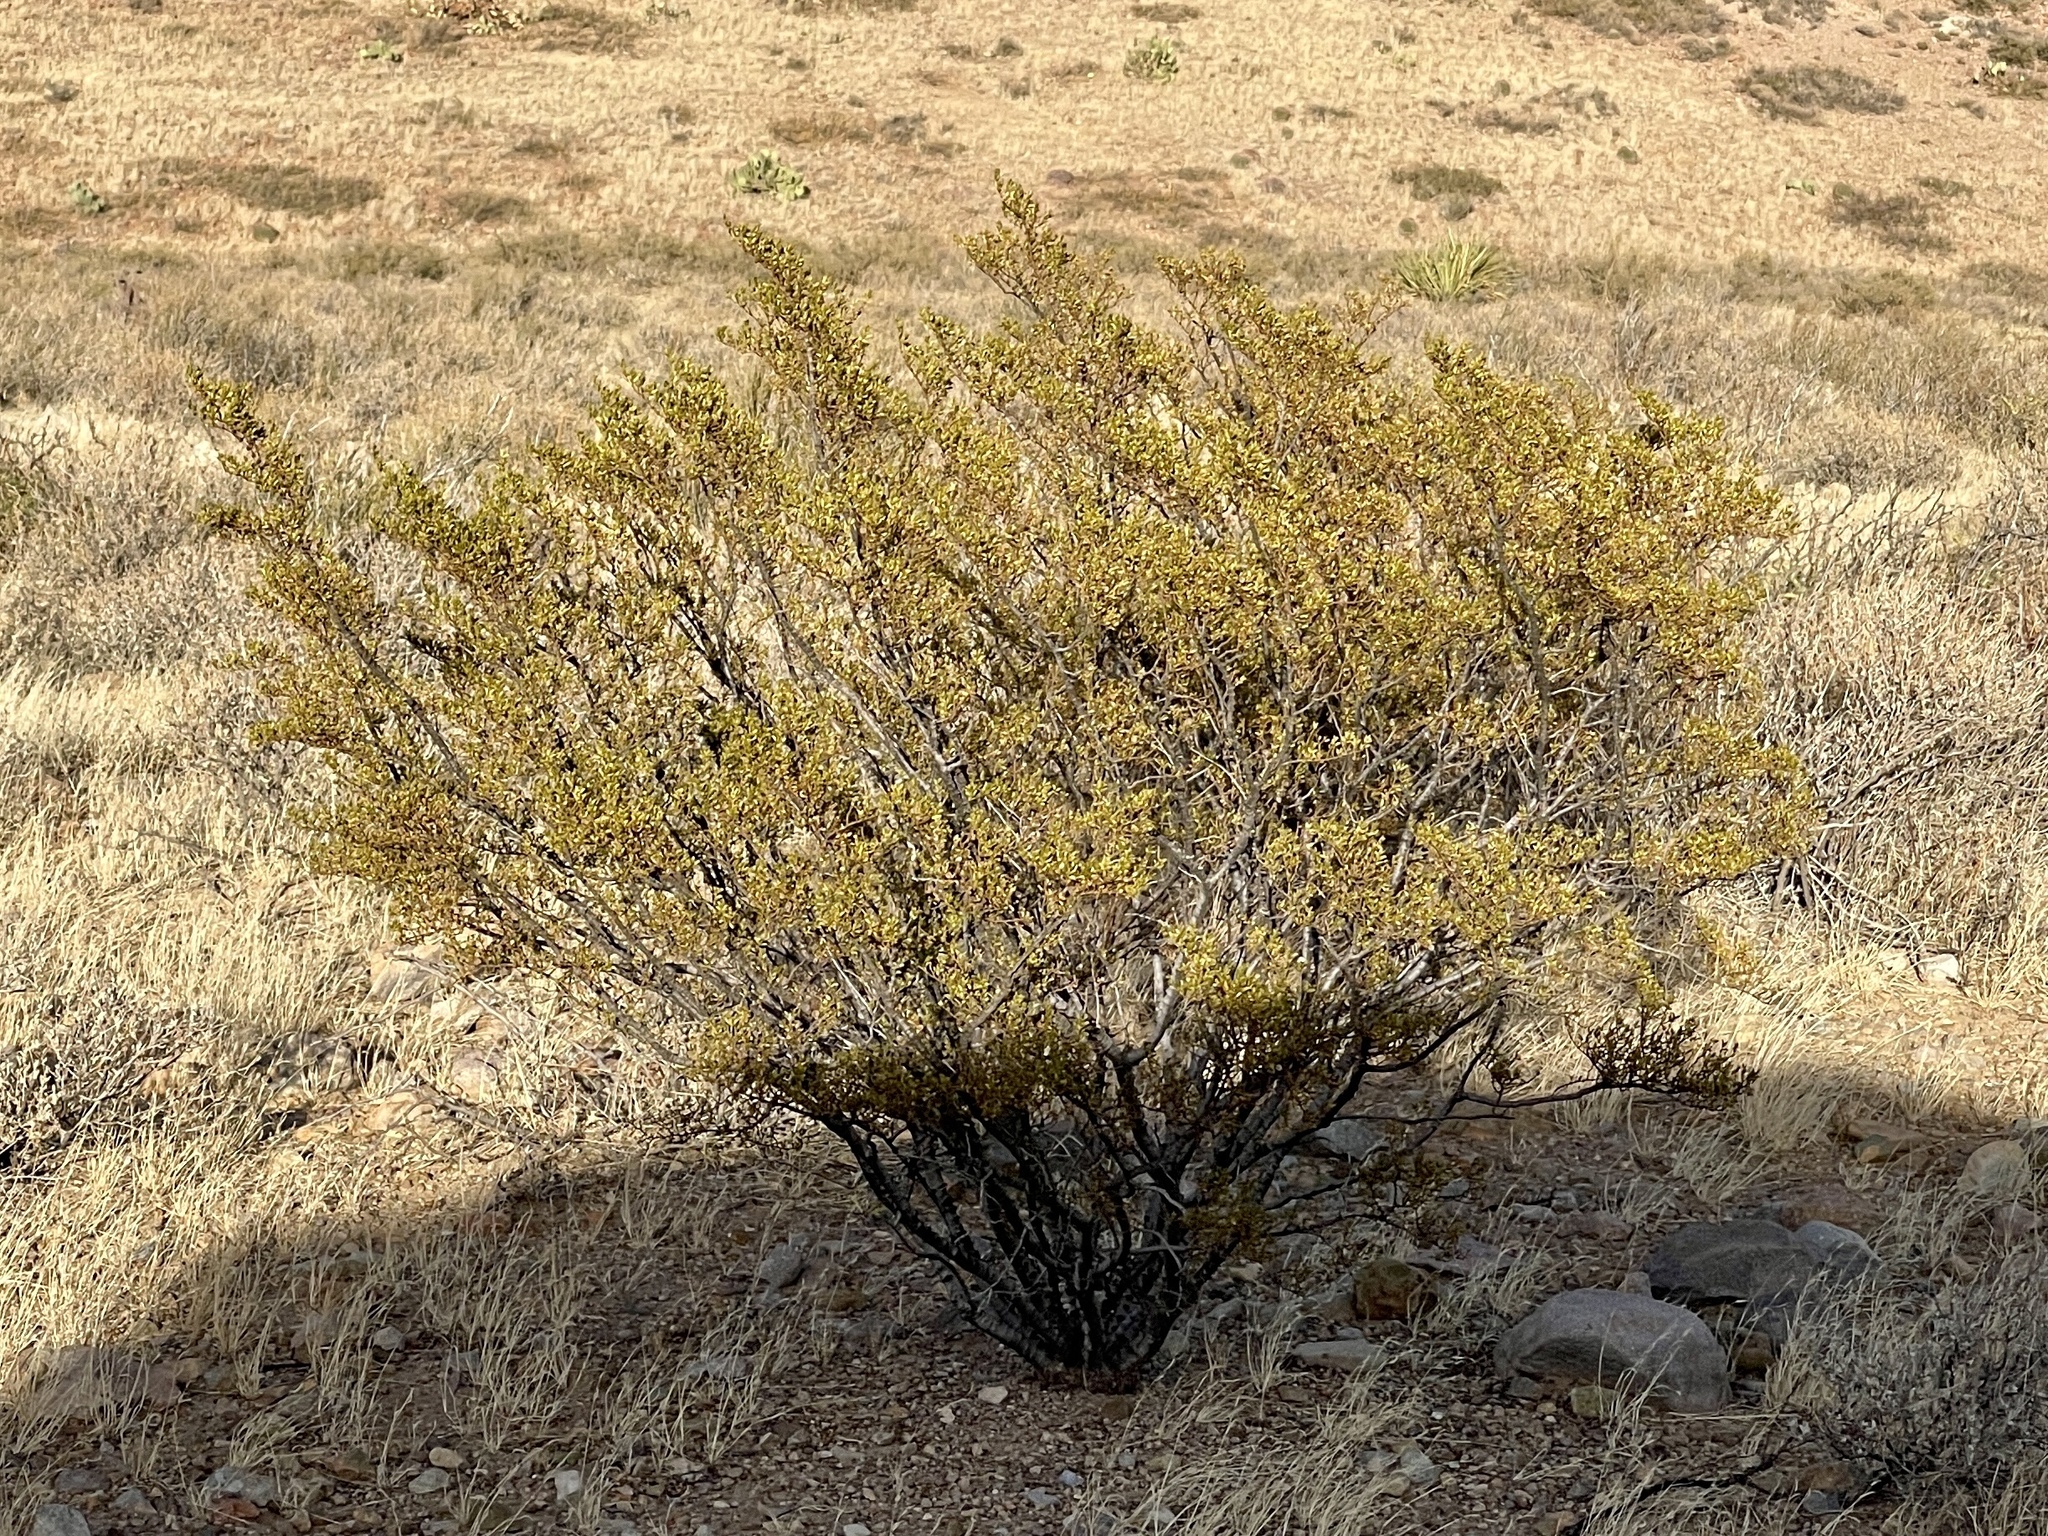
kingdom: Plantae
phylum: Tracheophyta
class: Magnoliopsida
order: Zygophyllales
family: Zygophyllaceae
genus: Larrea
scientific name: Larrea tridentata
